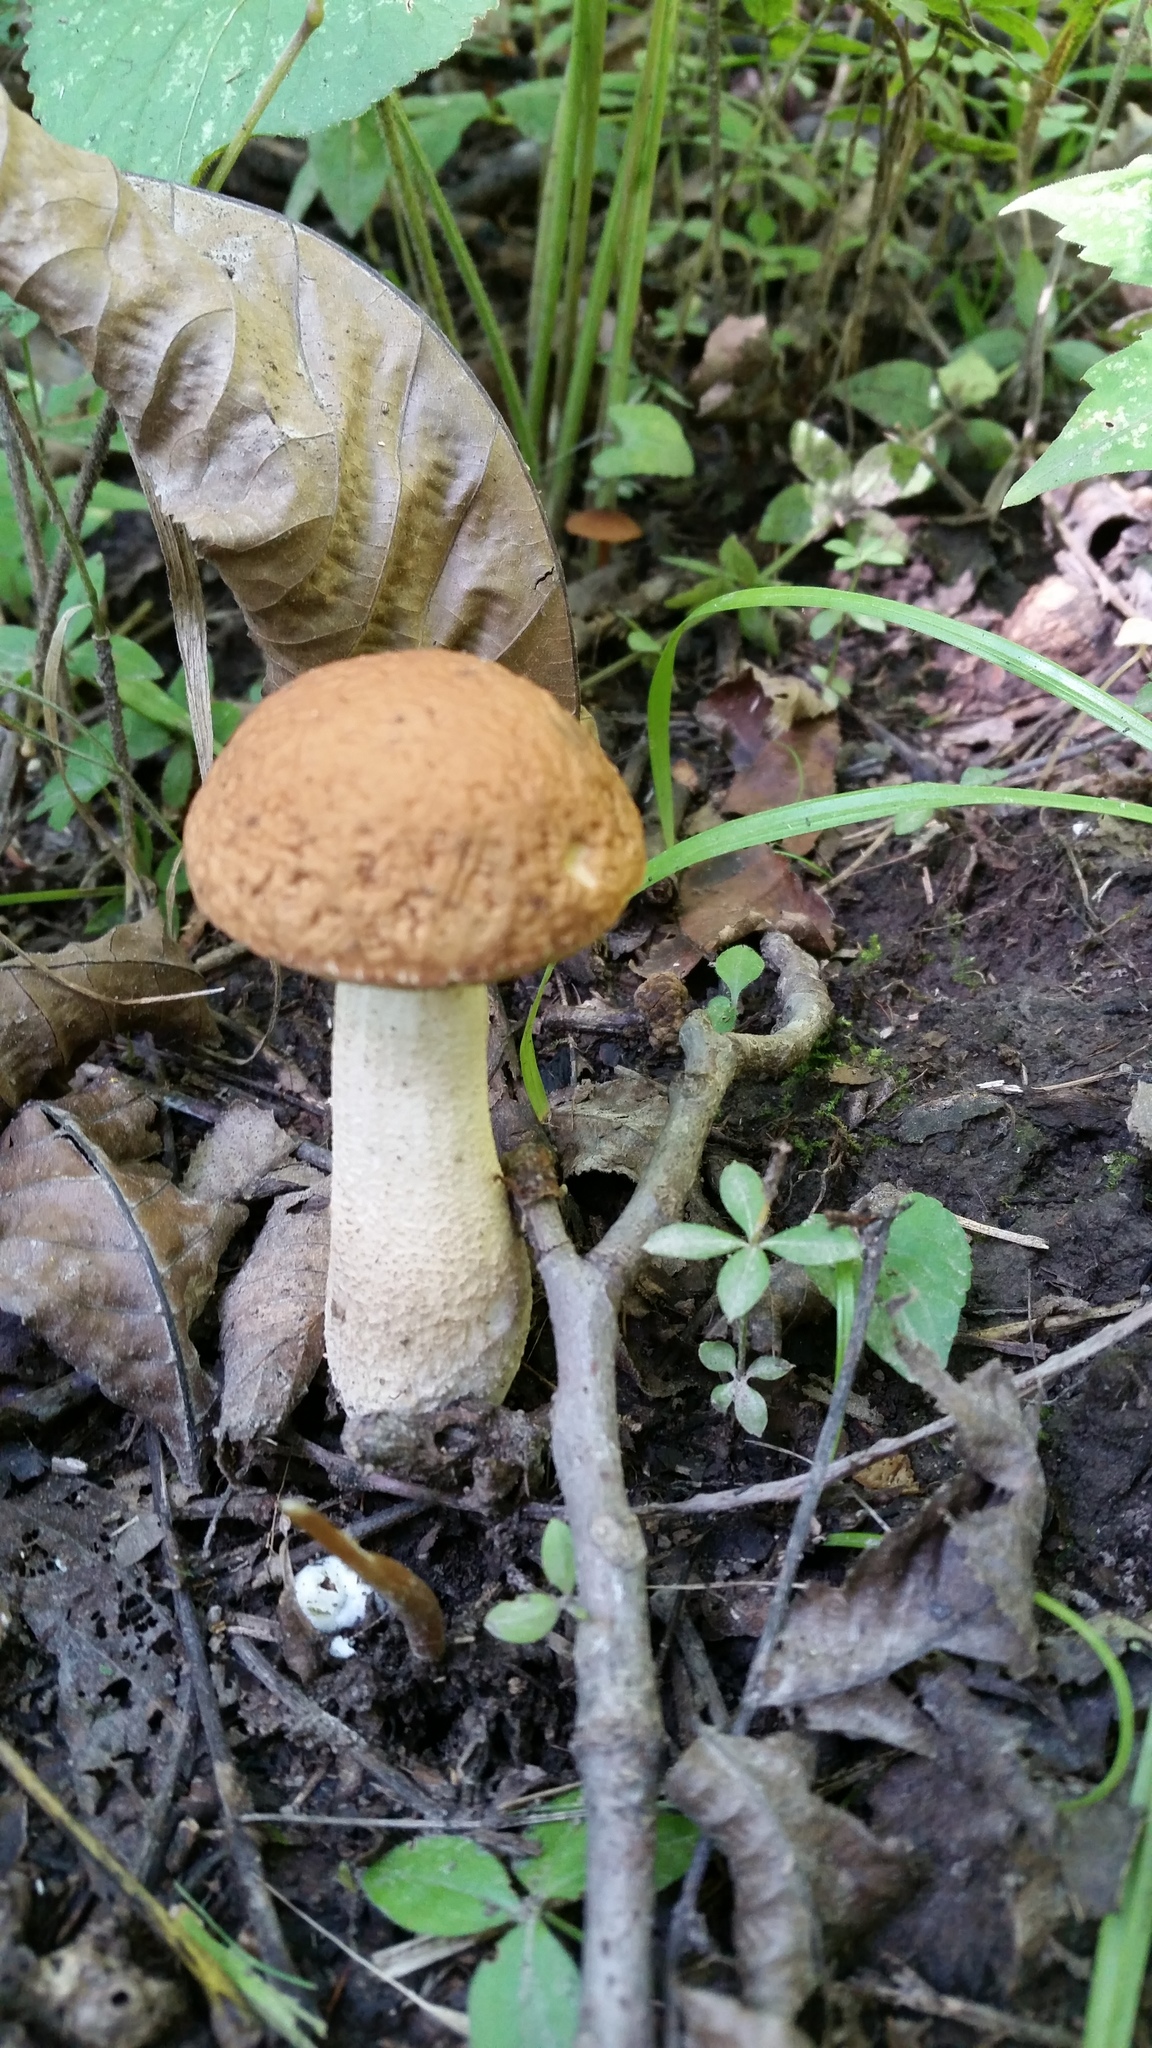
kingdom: Fungi
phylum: Basidiomycota
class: Agaricomycetes
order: Boletales
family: Boletaceae
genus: Leccinellum
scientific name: Leccinellum rugosiceps
